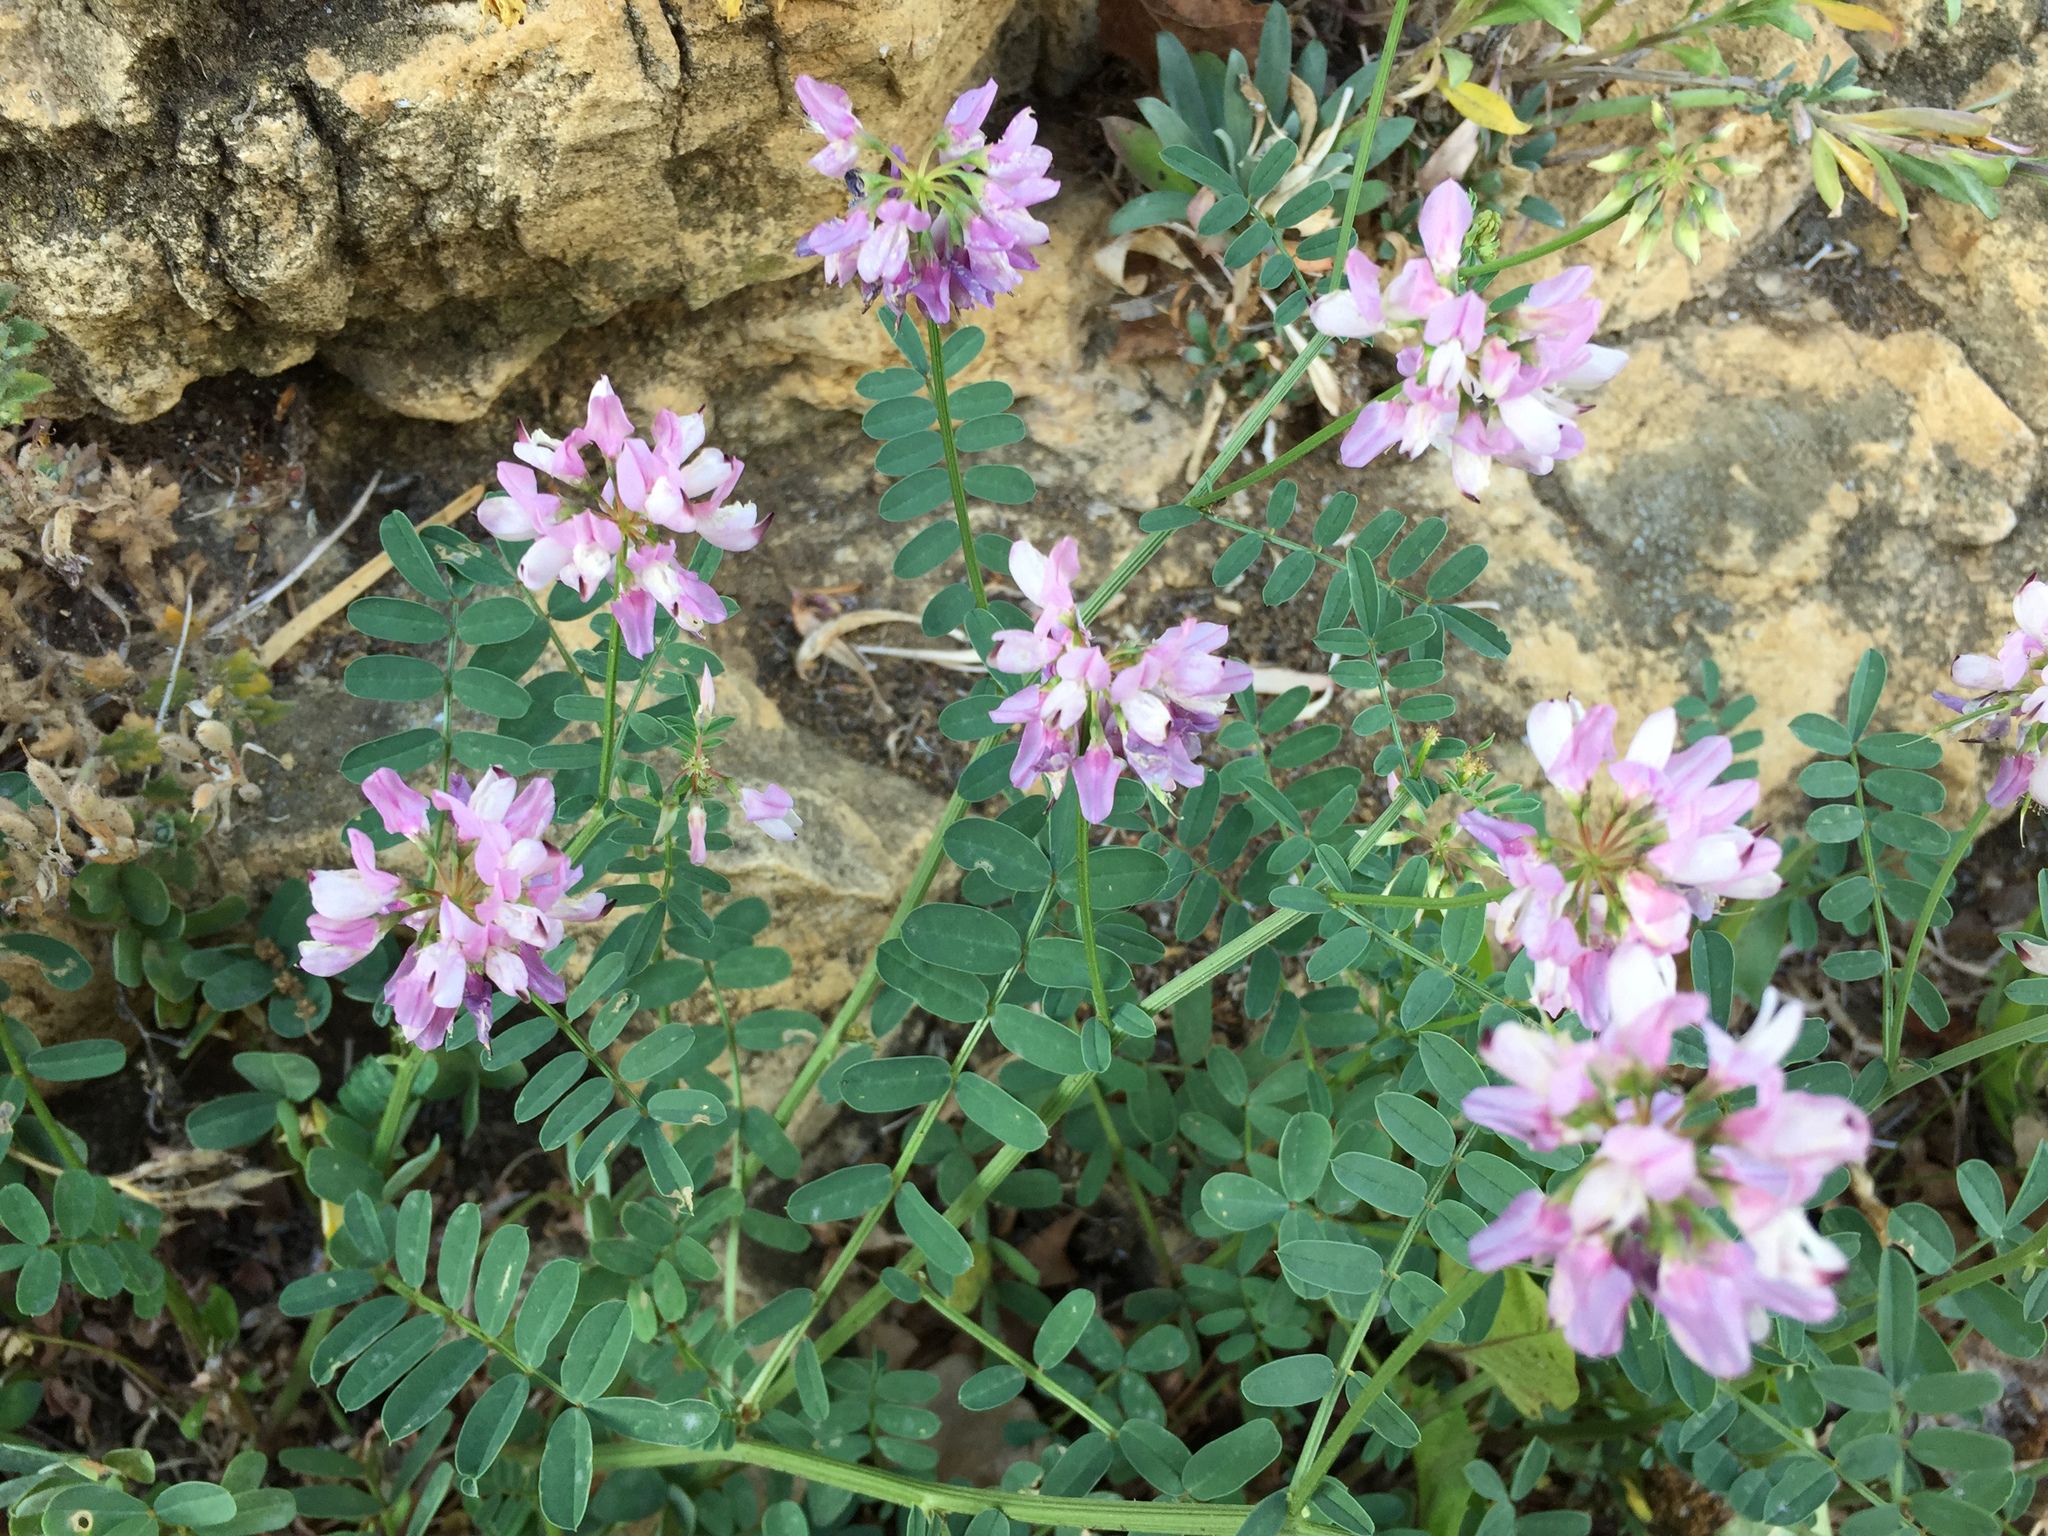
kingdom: Plantae
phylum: Tracheophyta
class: Magnoliopsida
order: Fabales
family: Fabaceae
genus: Coronilla
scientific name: Coronilla varia
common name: Crownvetch
